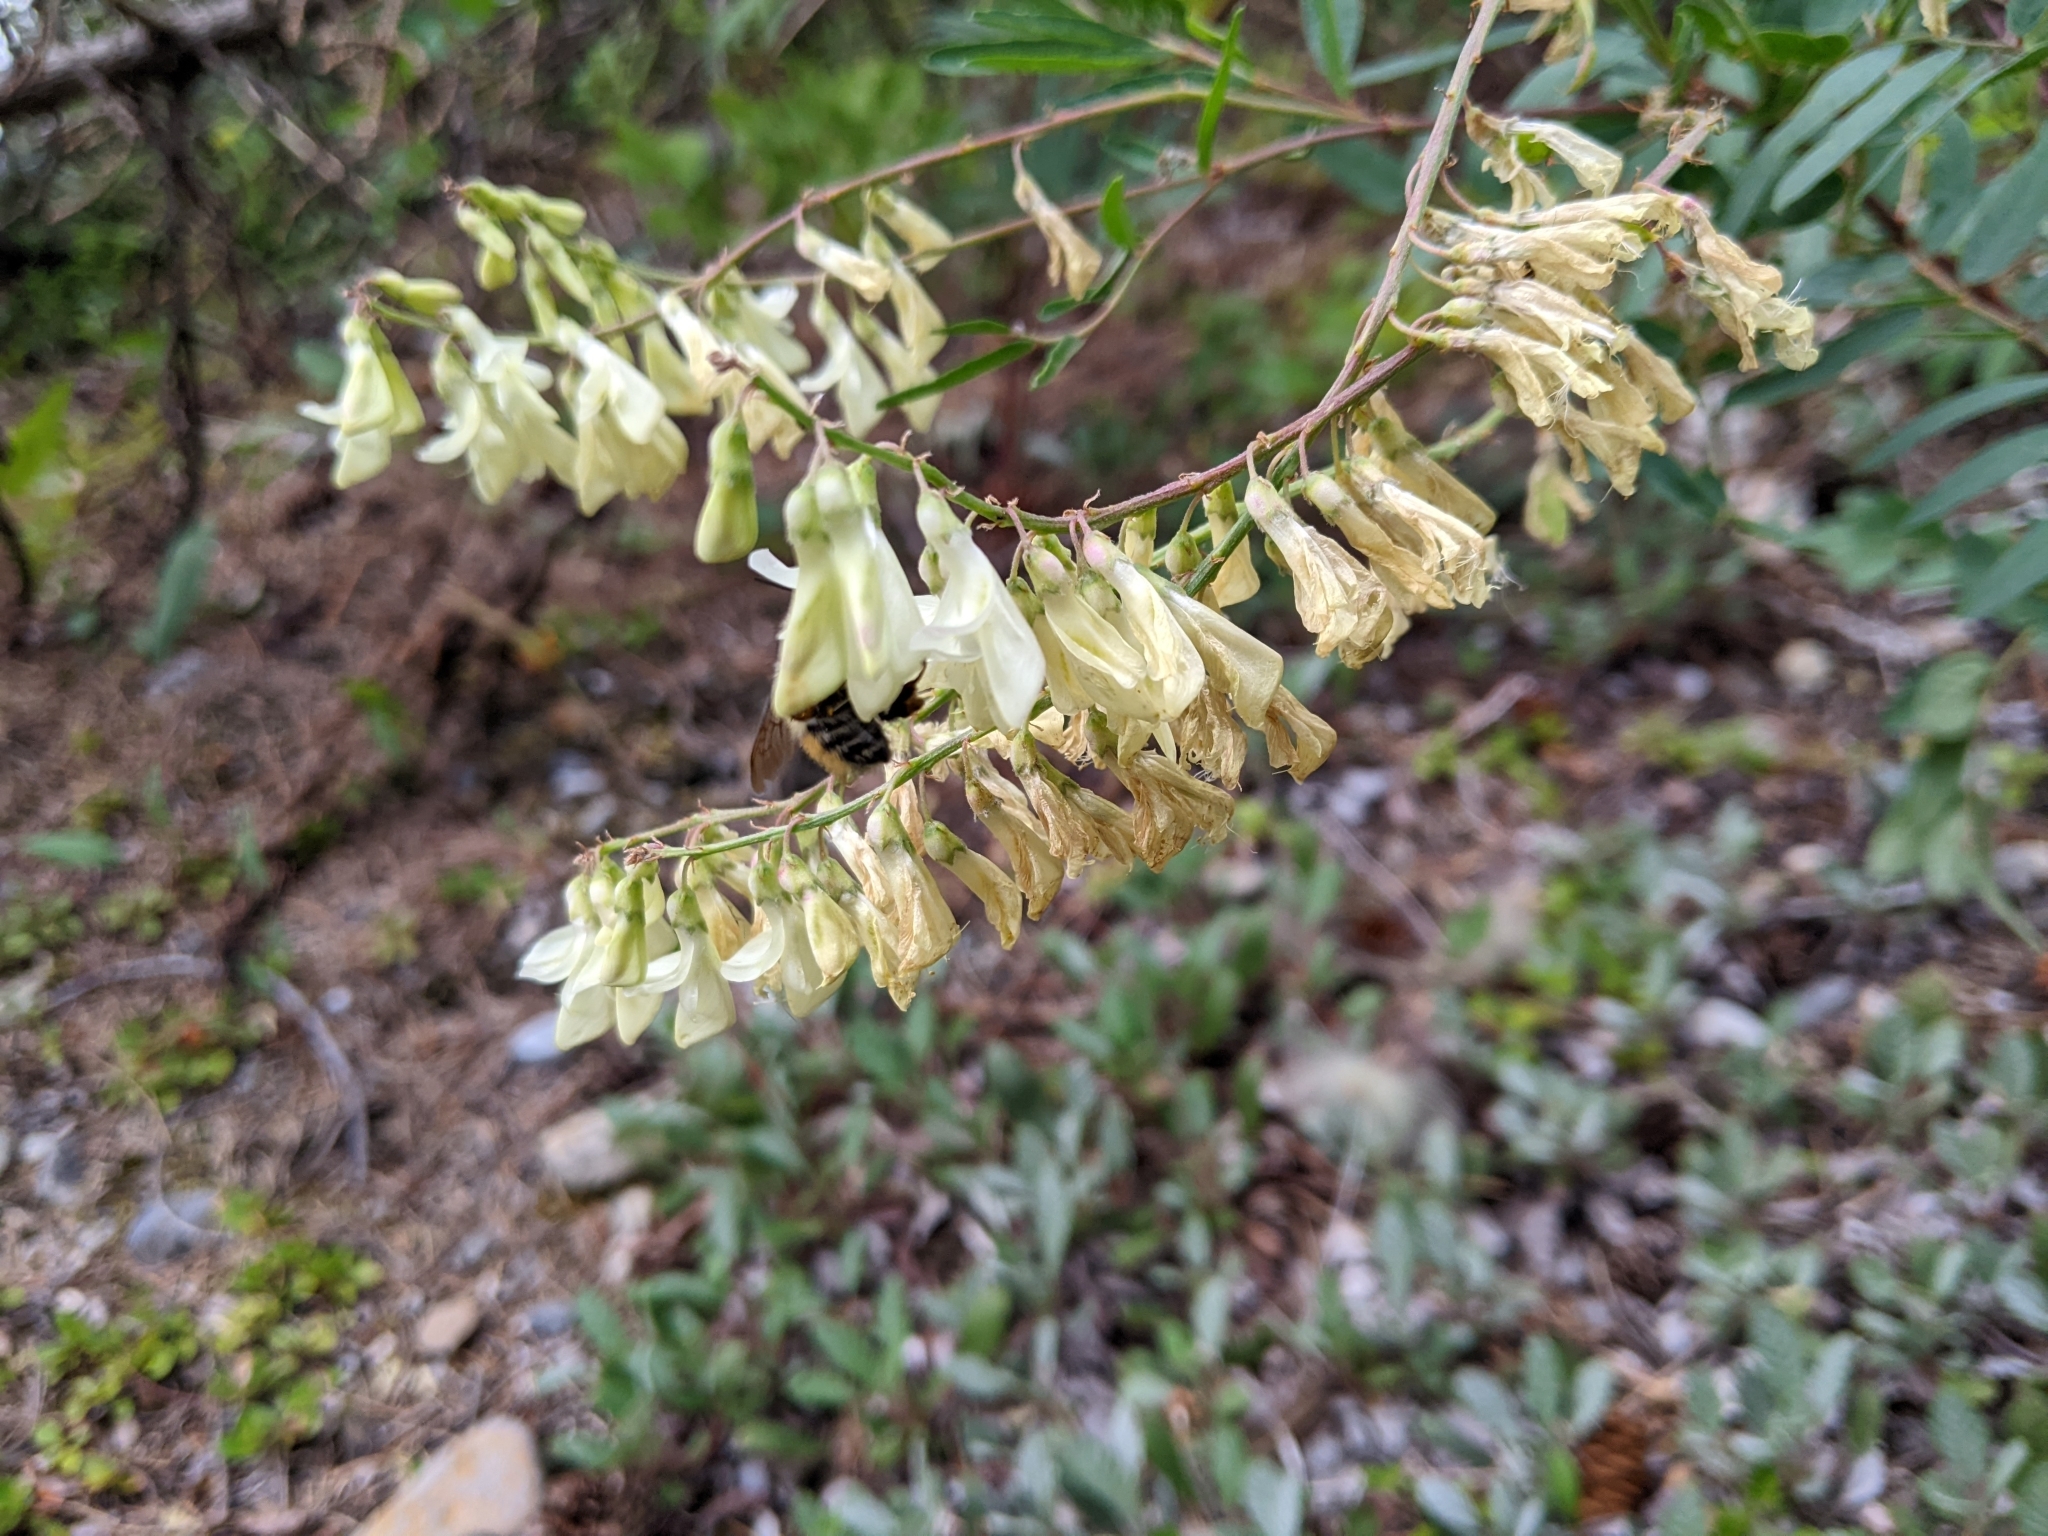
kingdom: Plantae
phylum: Tracheophyta
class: Magnoliopsida
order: Fabales
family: Fabaceae
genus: Hedysarum
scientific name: Hedysarum sulphurescens
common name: Sulphur hedysarum
